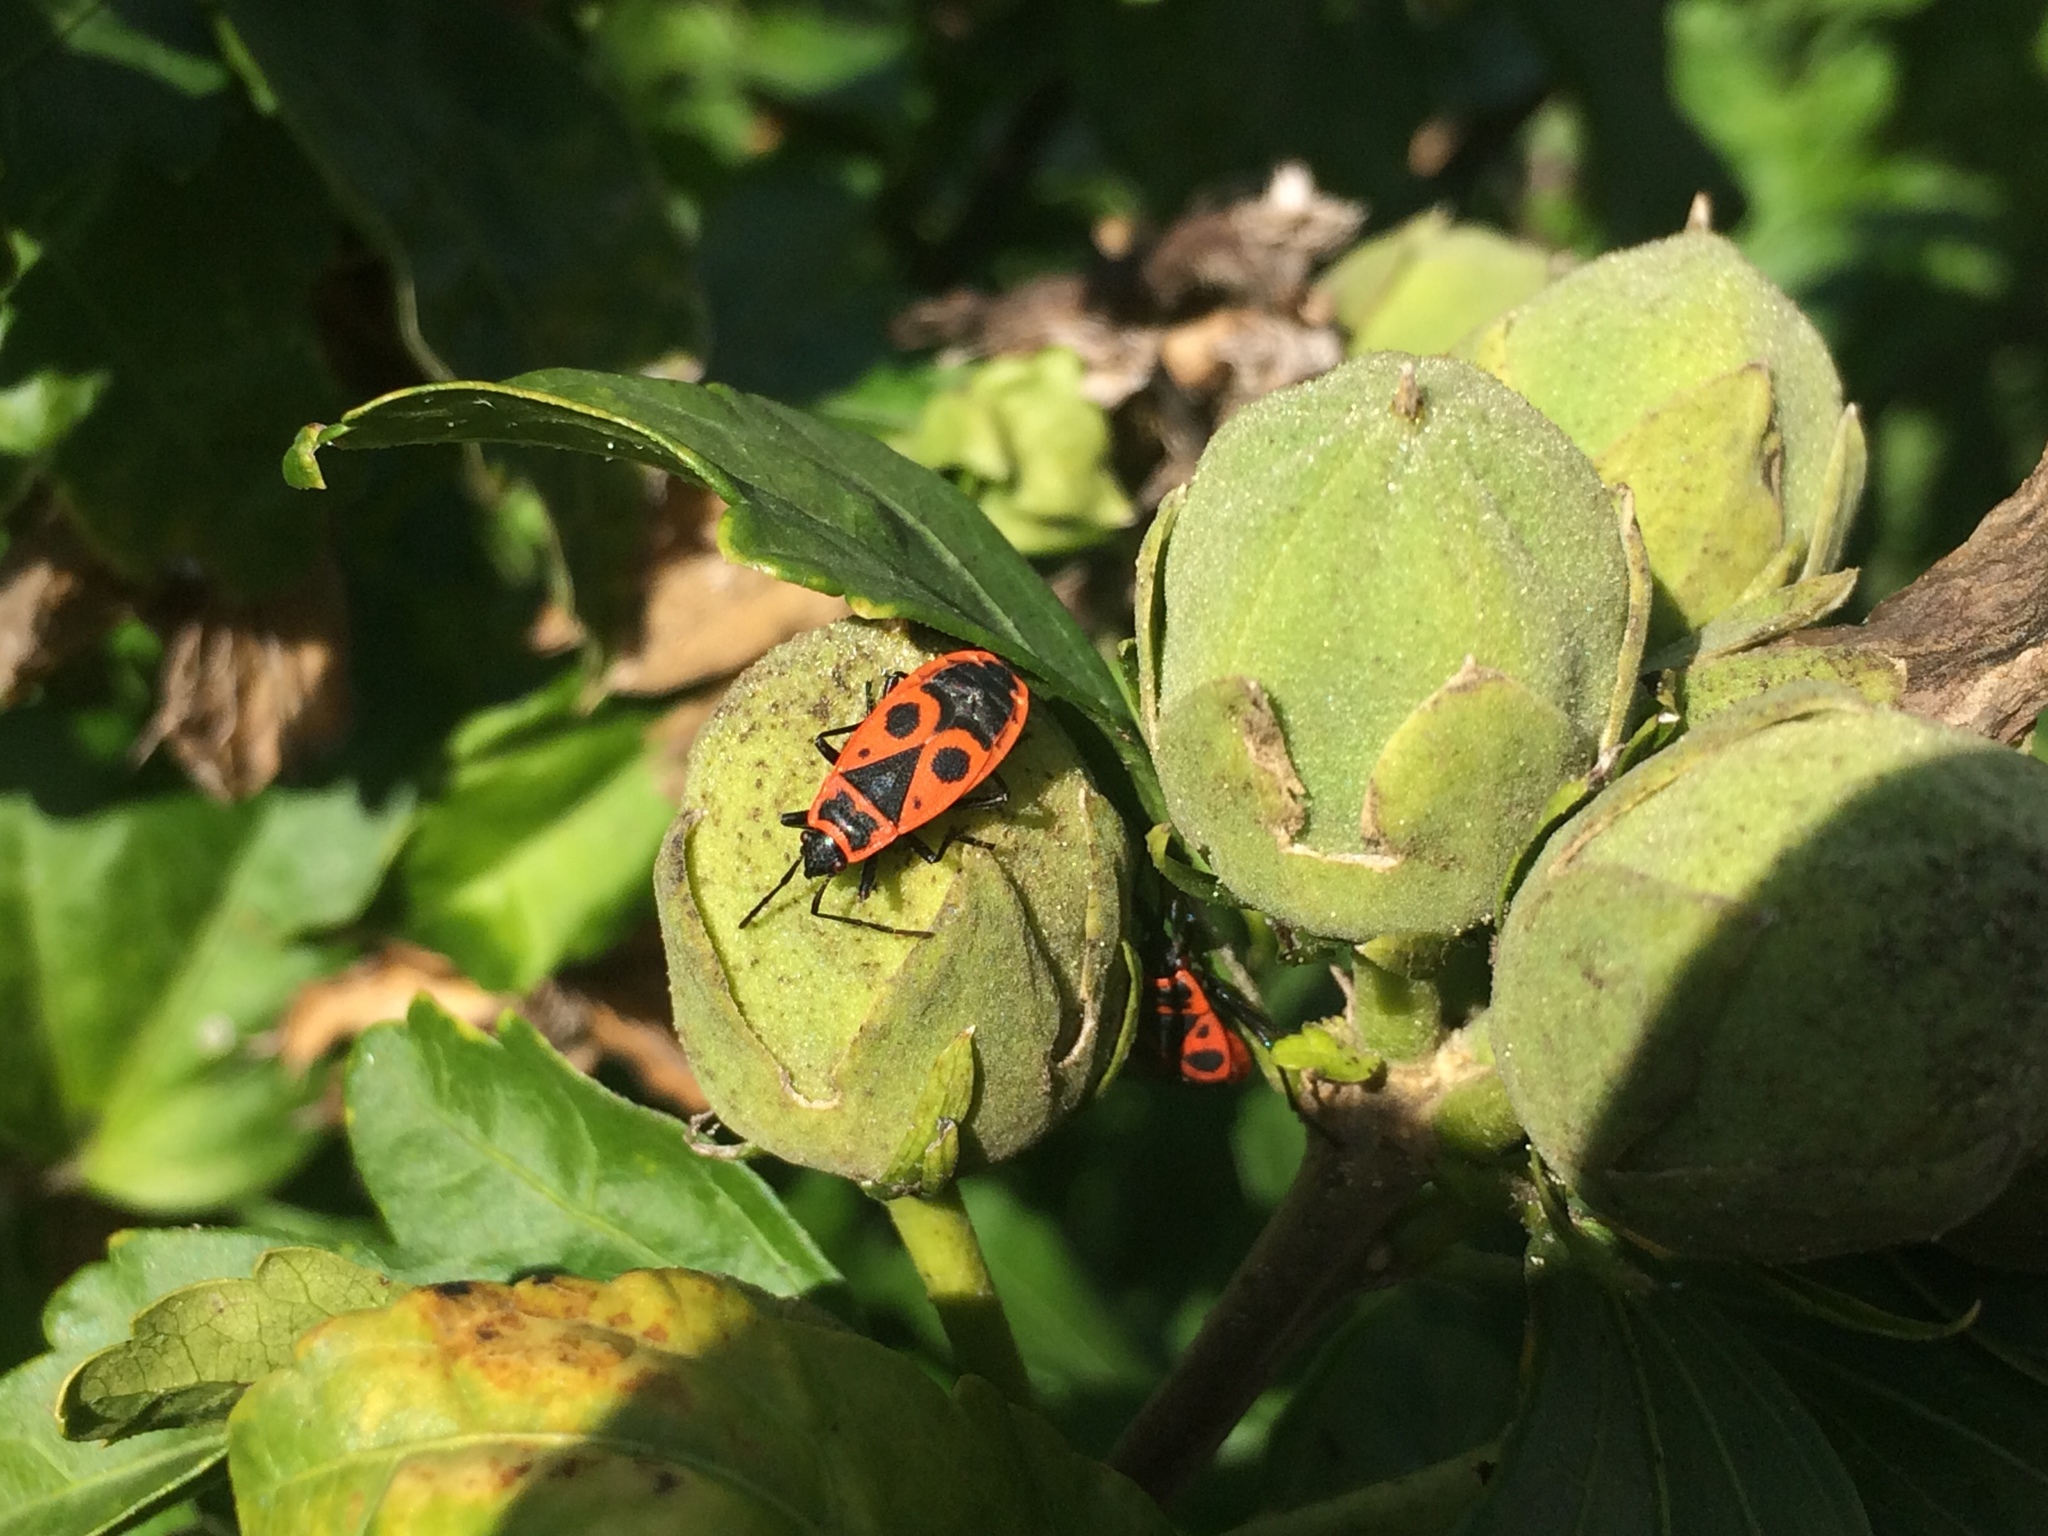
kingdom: Animalia
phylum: Arthropoda
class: Insecta
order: Hemiptera
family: Pyrrhocoridae
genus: Pyrrhocoris
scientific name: Pyrrhocoris apterus
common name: Firebug
